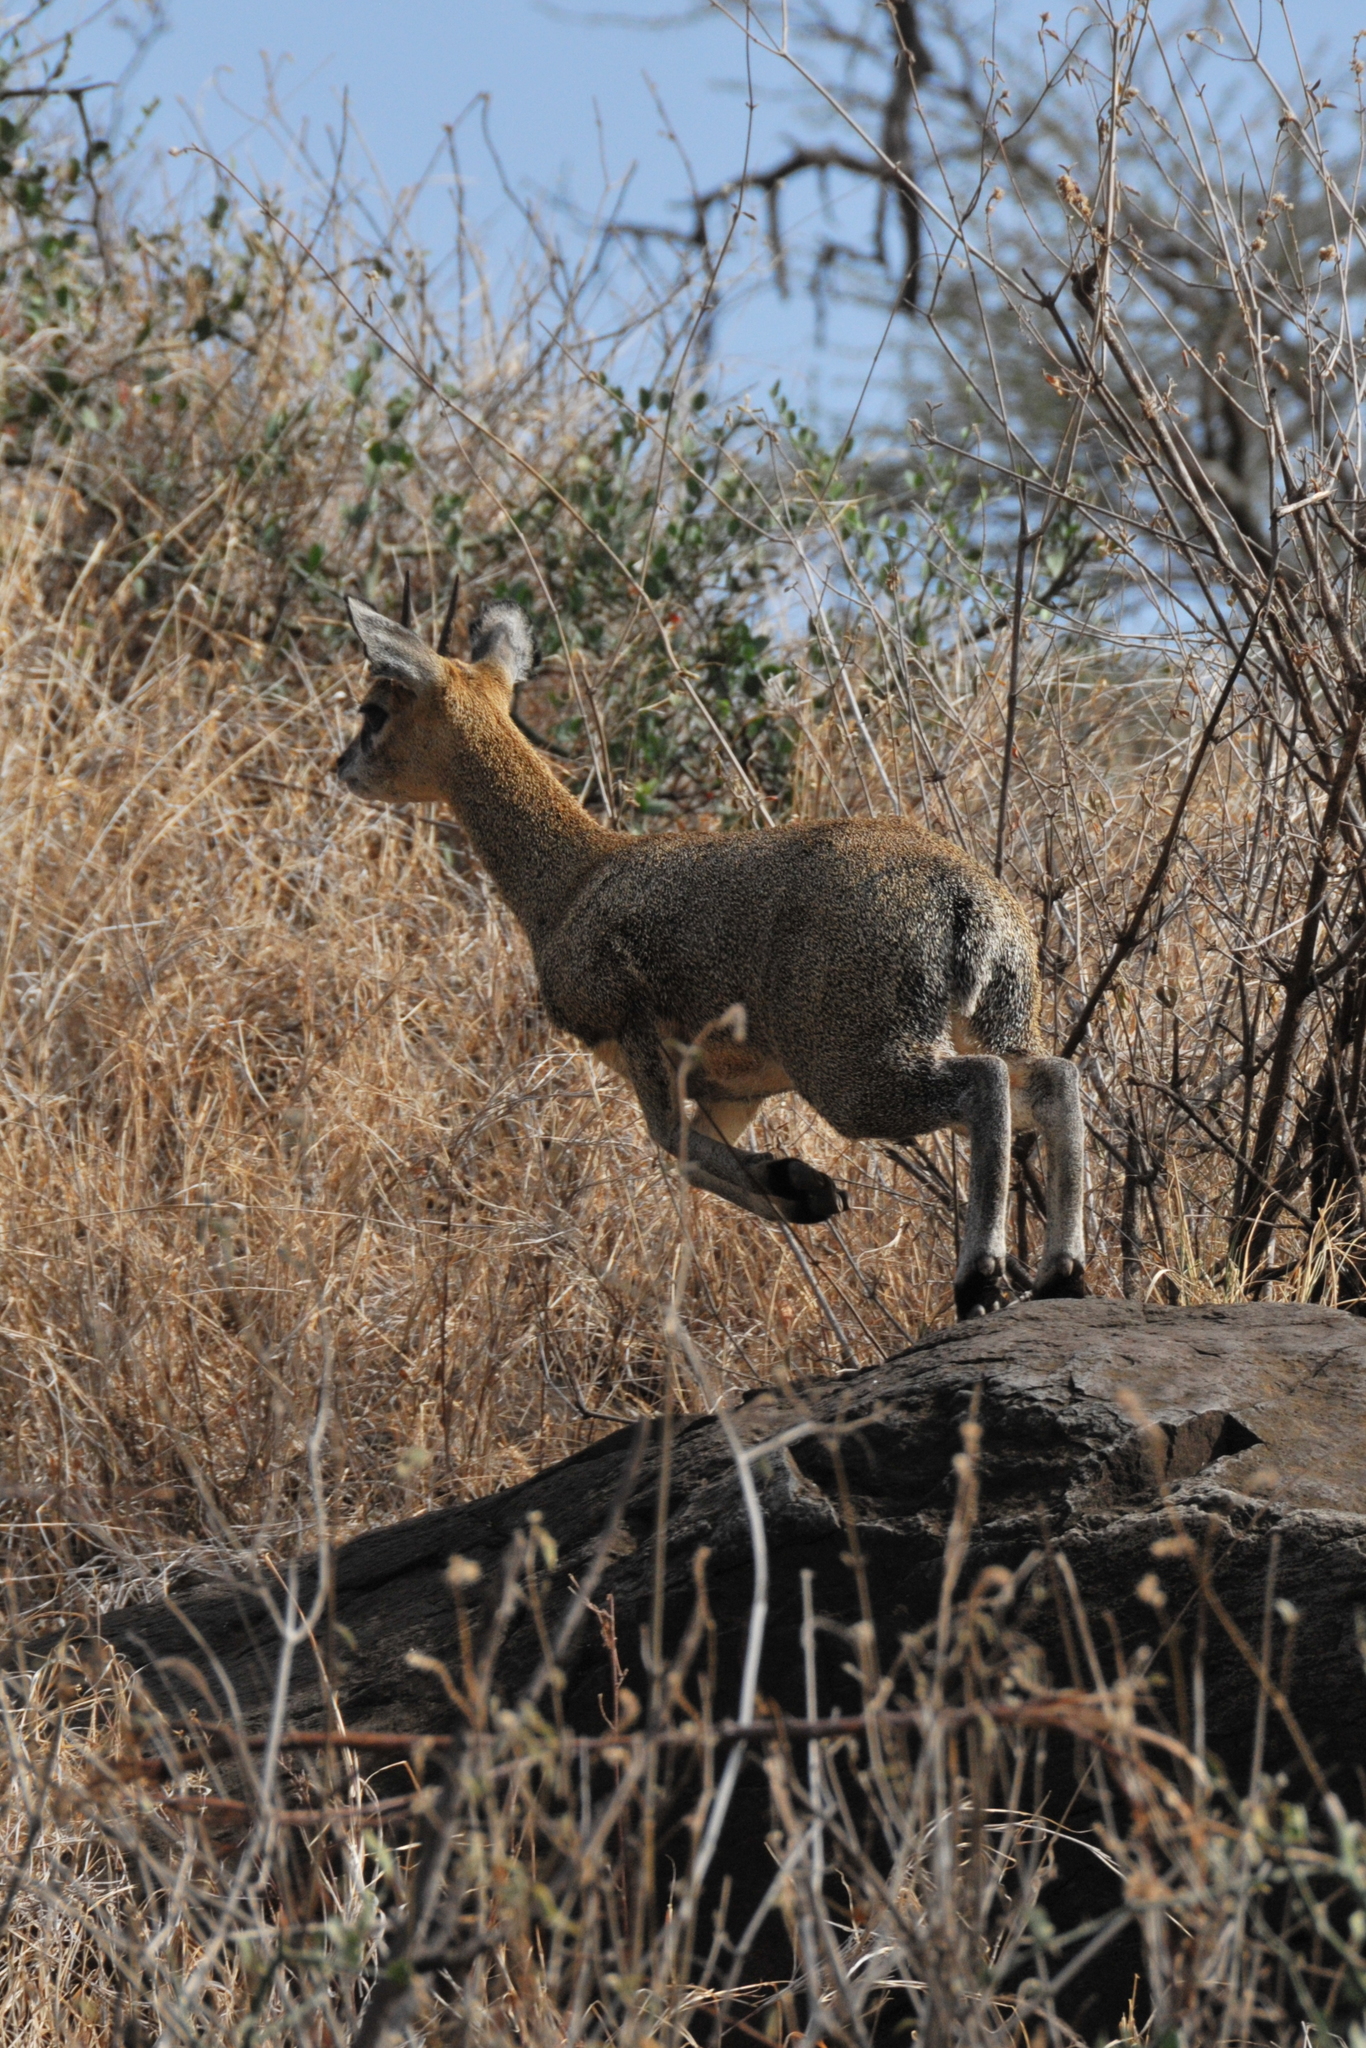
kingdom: Animalia
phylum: Chordata
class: Mammalia
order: Artiodactyla
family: Bovidae
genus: Oreotragus
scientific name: Oreotragus oreotragus
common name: Klipspringer
